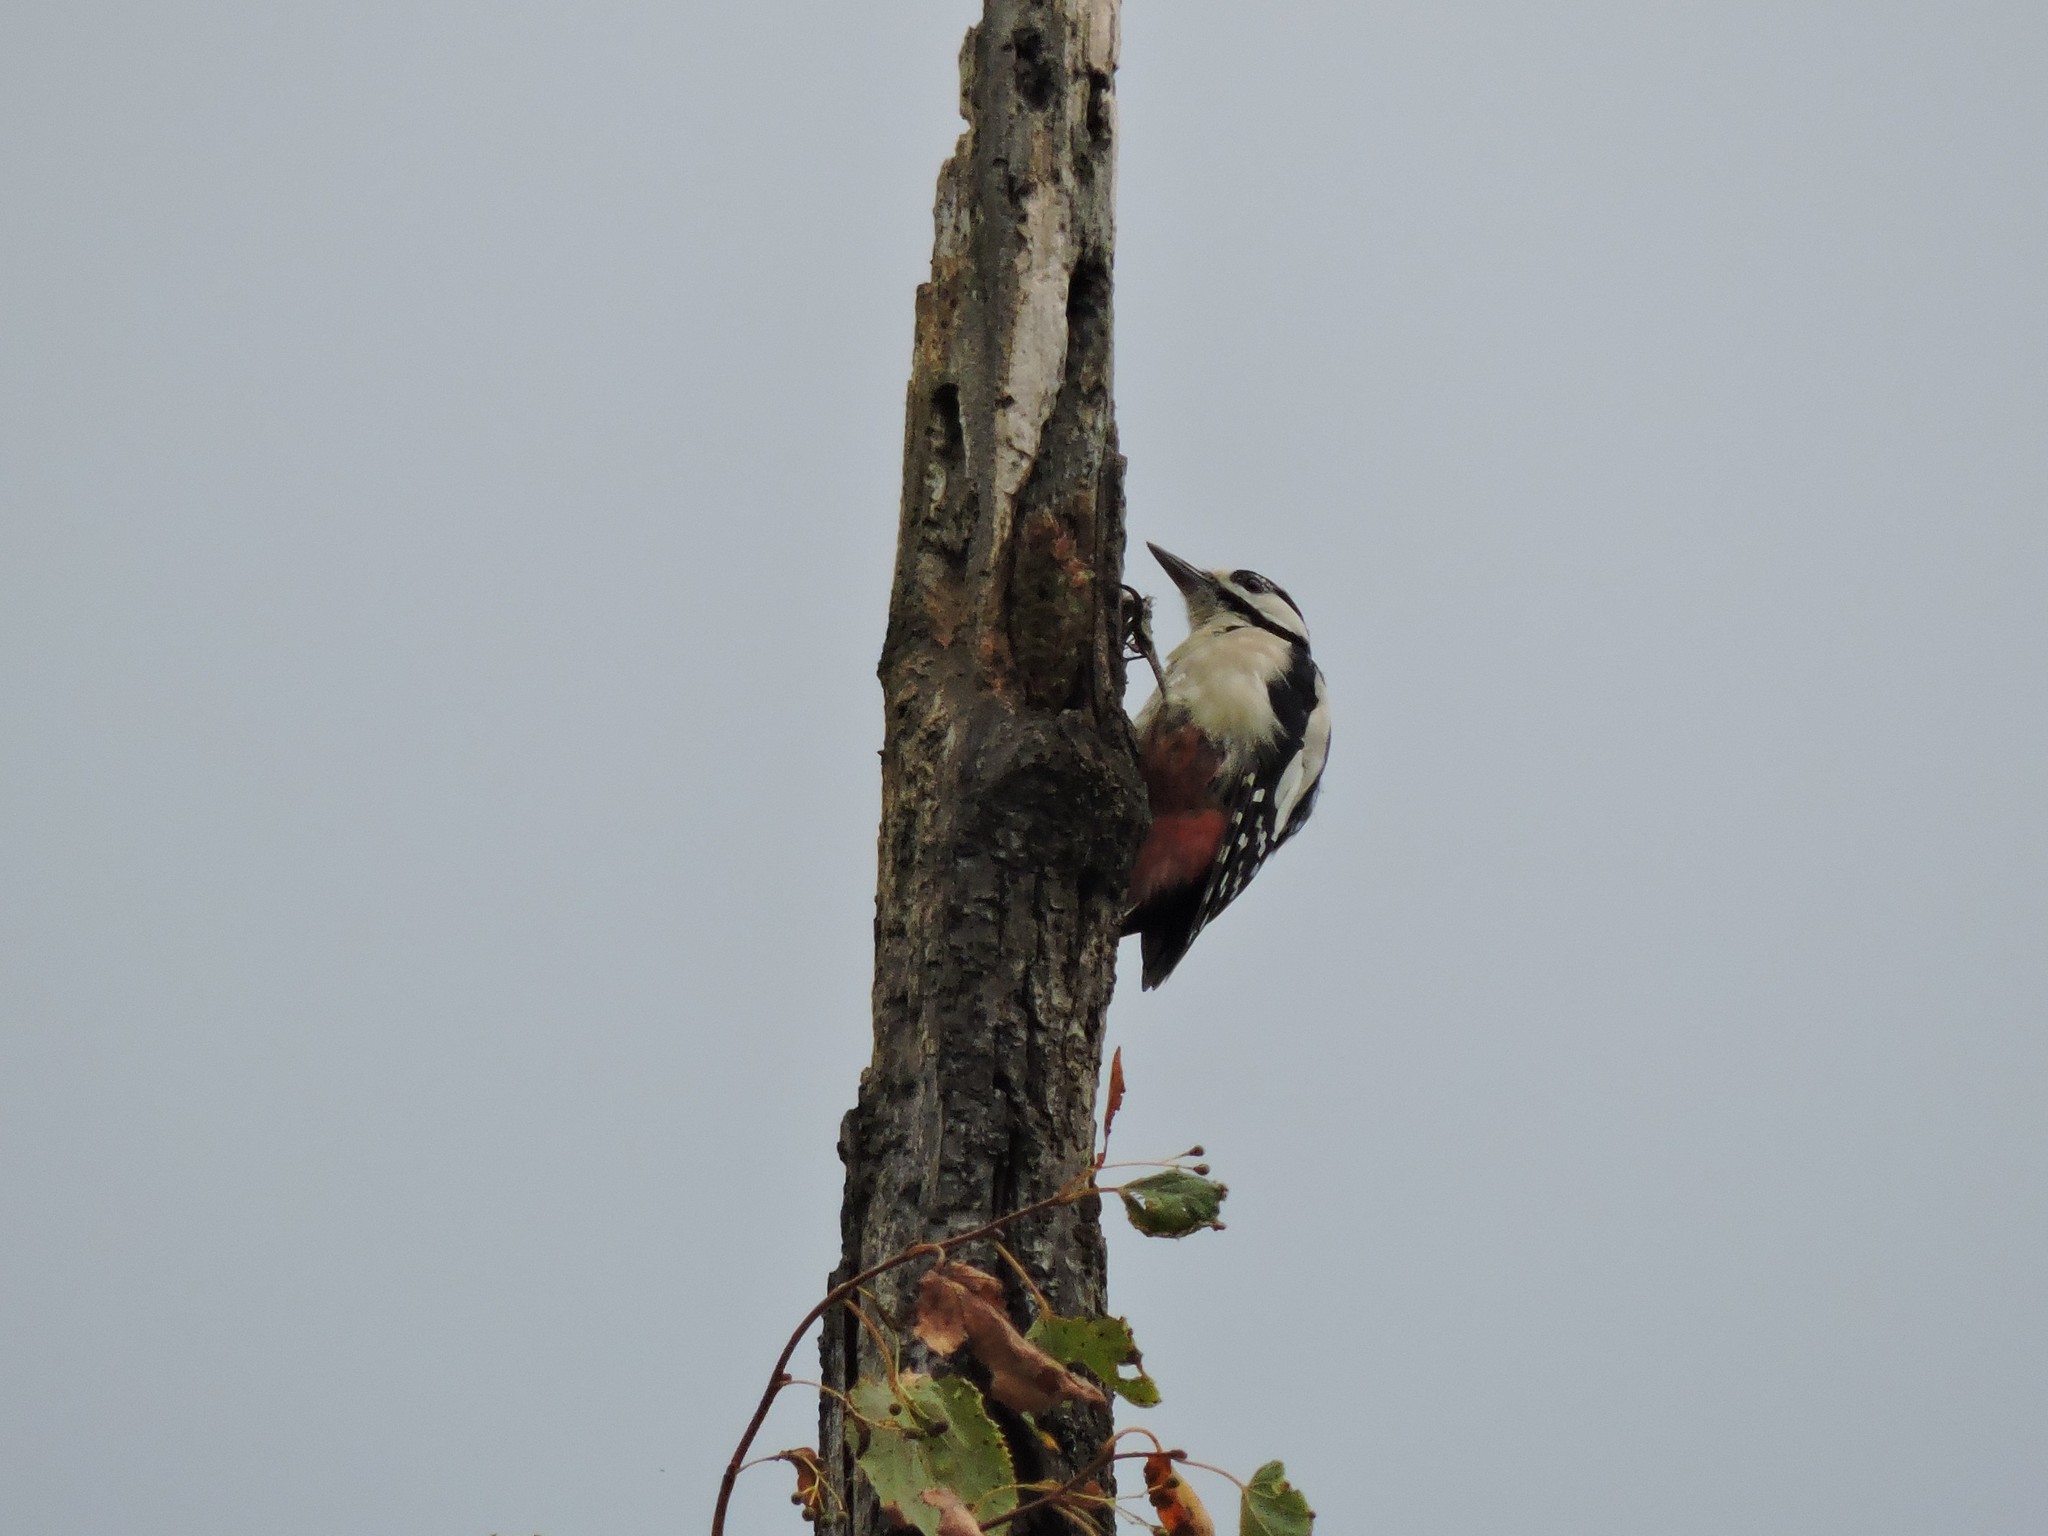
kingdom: Animalia
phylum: Chordata
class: Aves
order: Piciformes
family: Picidae
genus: Dendrocopos
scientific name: Dendrocopos major
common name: Great spotted woodpecker
